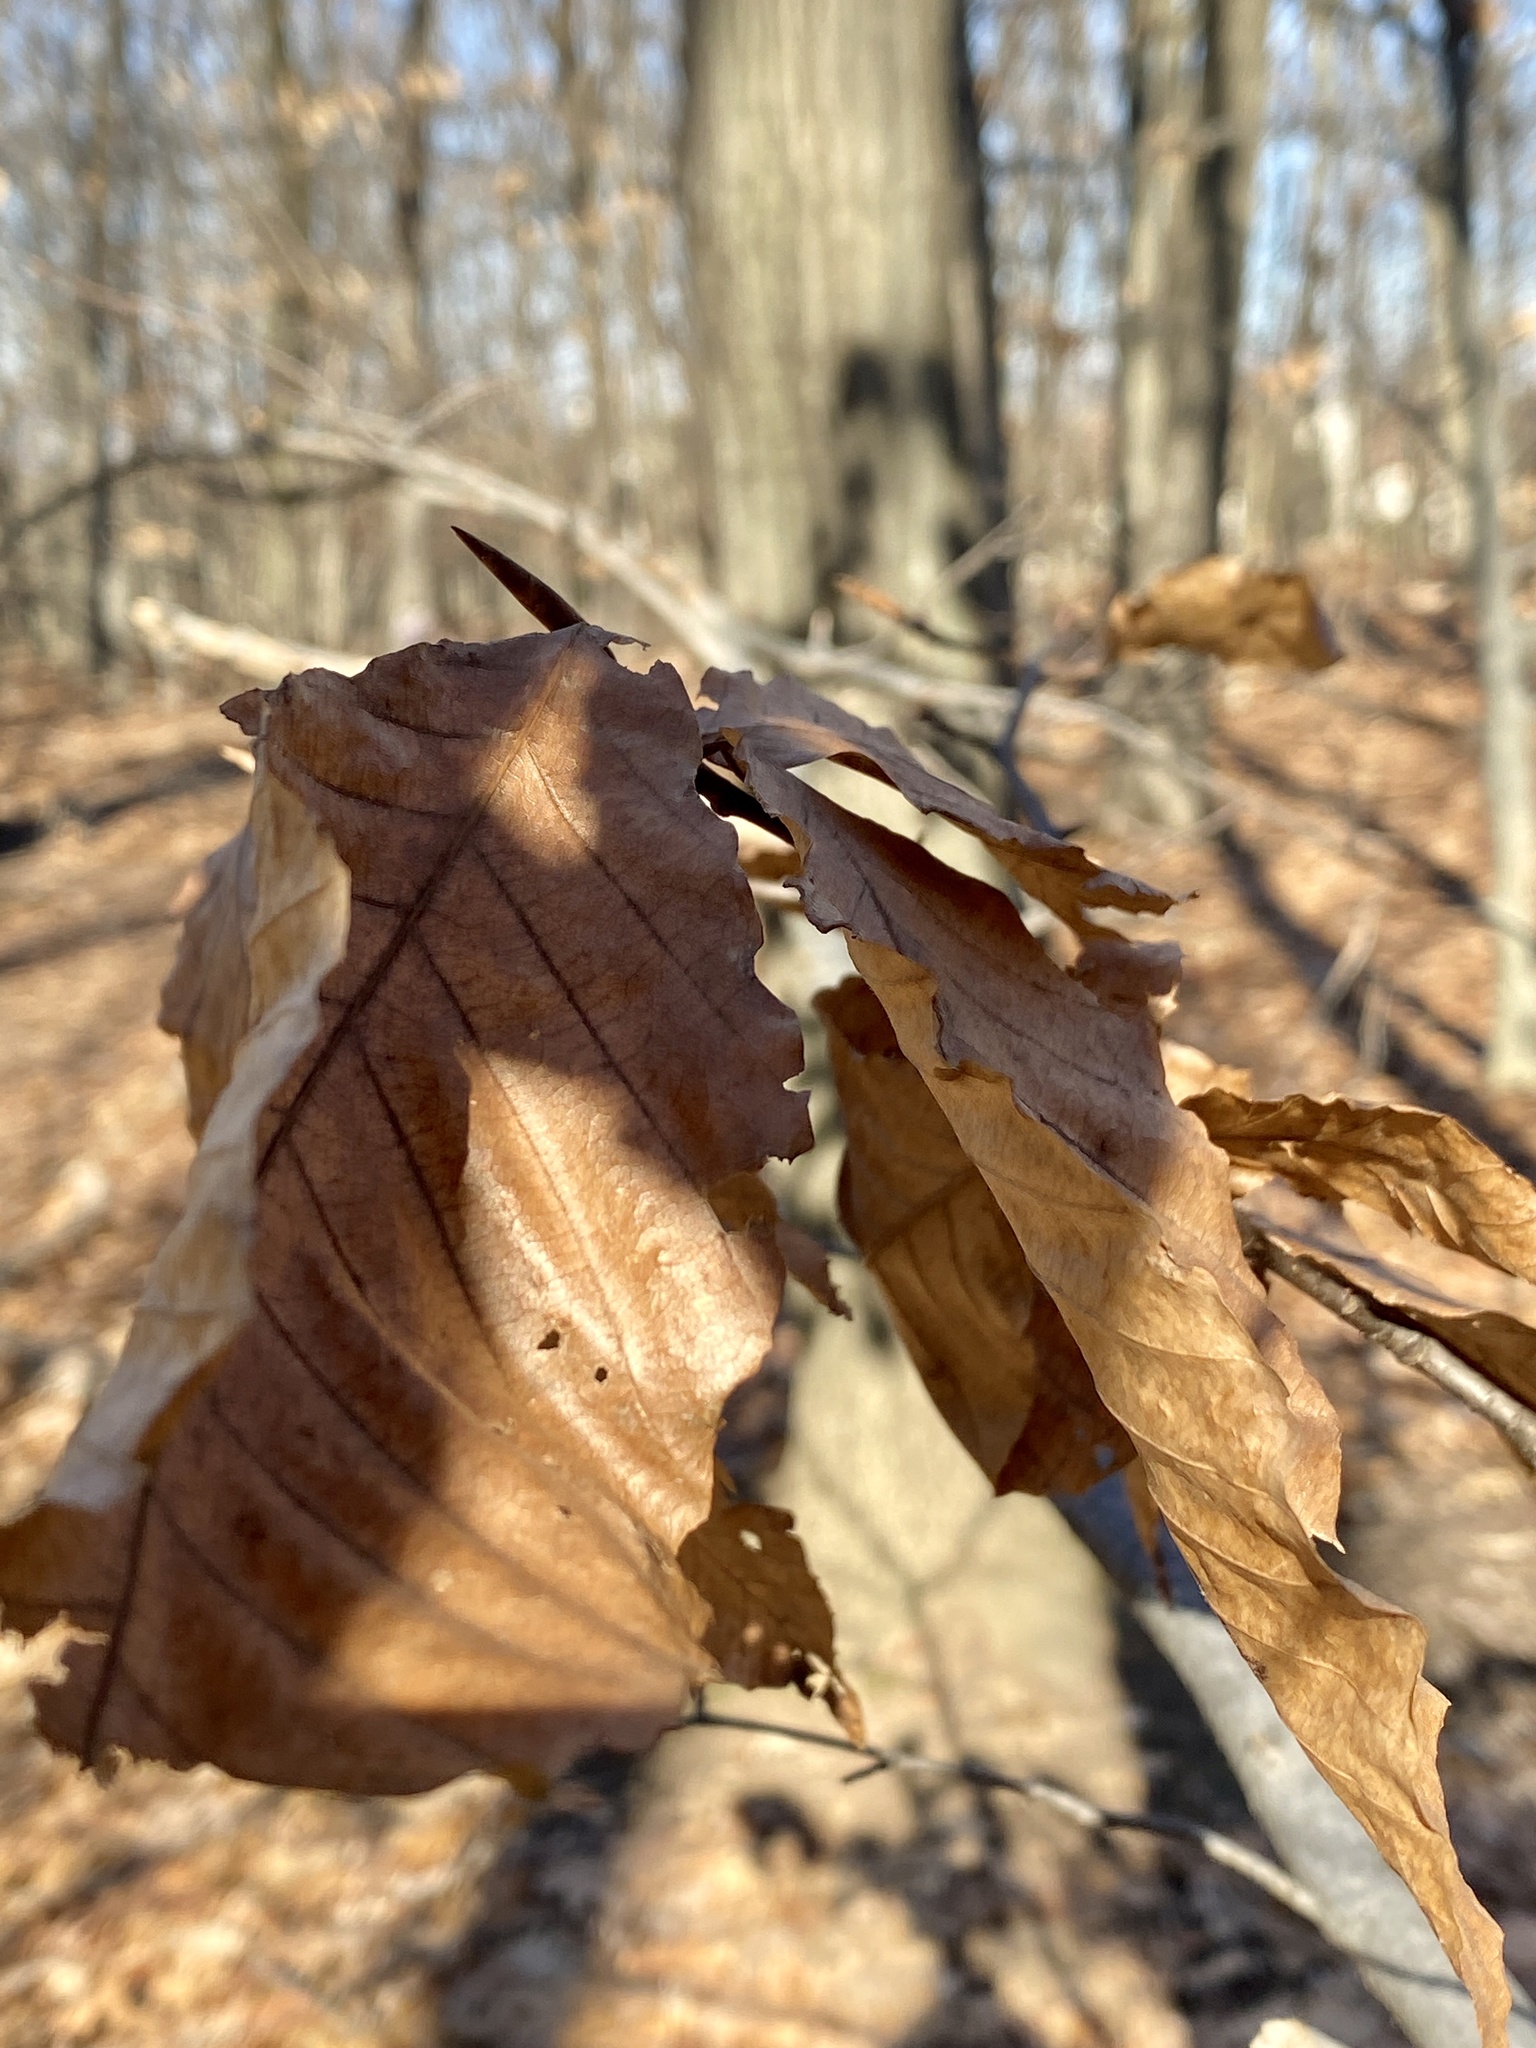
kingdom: Plantae
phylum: Tracheophyta
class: Magnoliopsida
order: Fagales
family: Fagaceae
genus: Fagus
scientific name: Fagus grandifolia
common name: American beech
